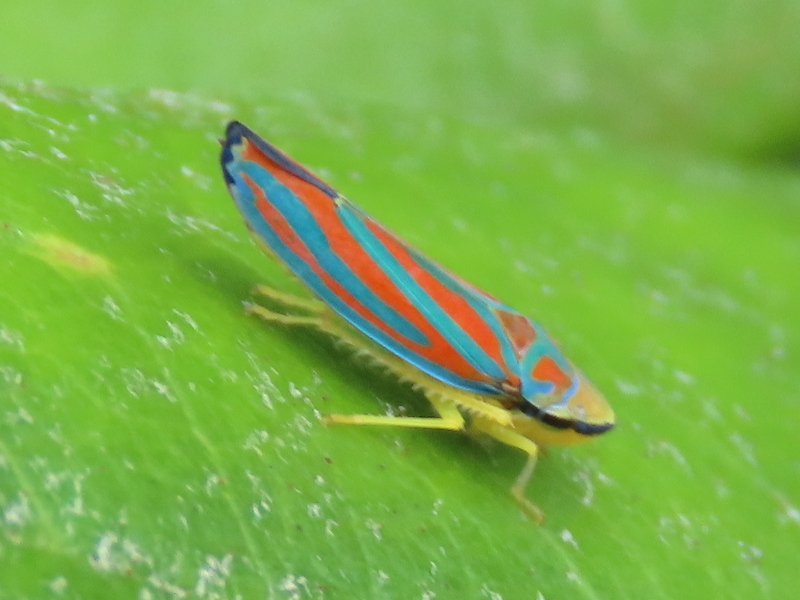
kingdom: Animalia
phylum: Arthropoda
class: Insecta
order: Hemiptera
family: Cicadellidae
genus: Graphocephala
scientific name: Graphocephala coccinea
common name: Candy-striped leafhopper
